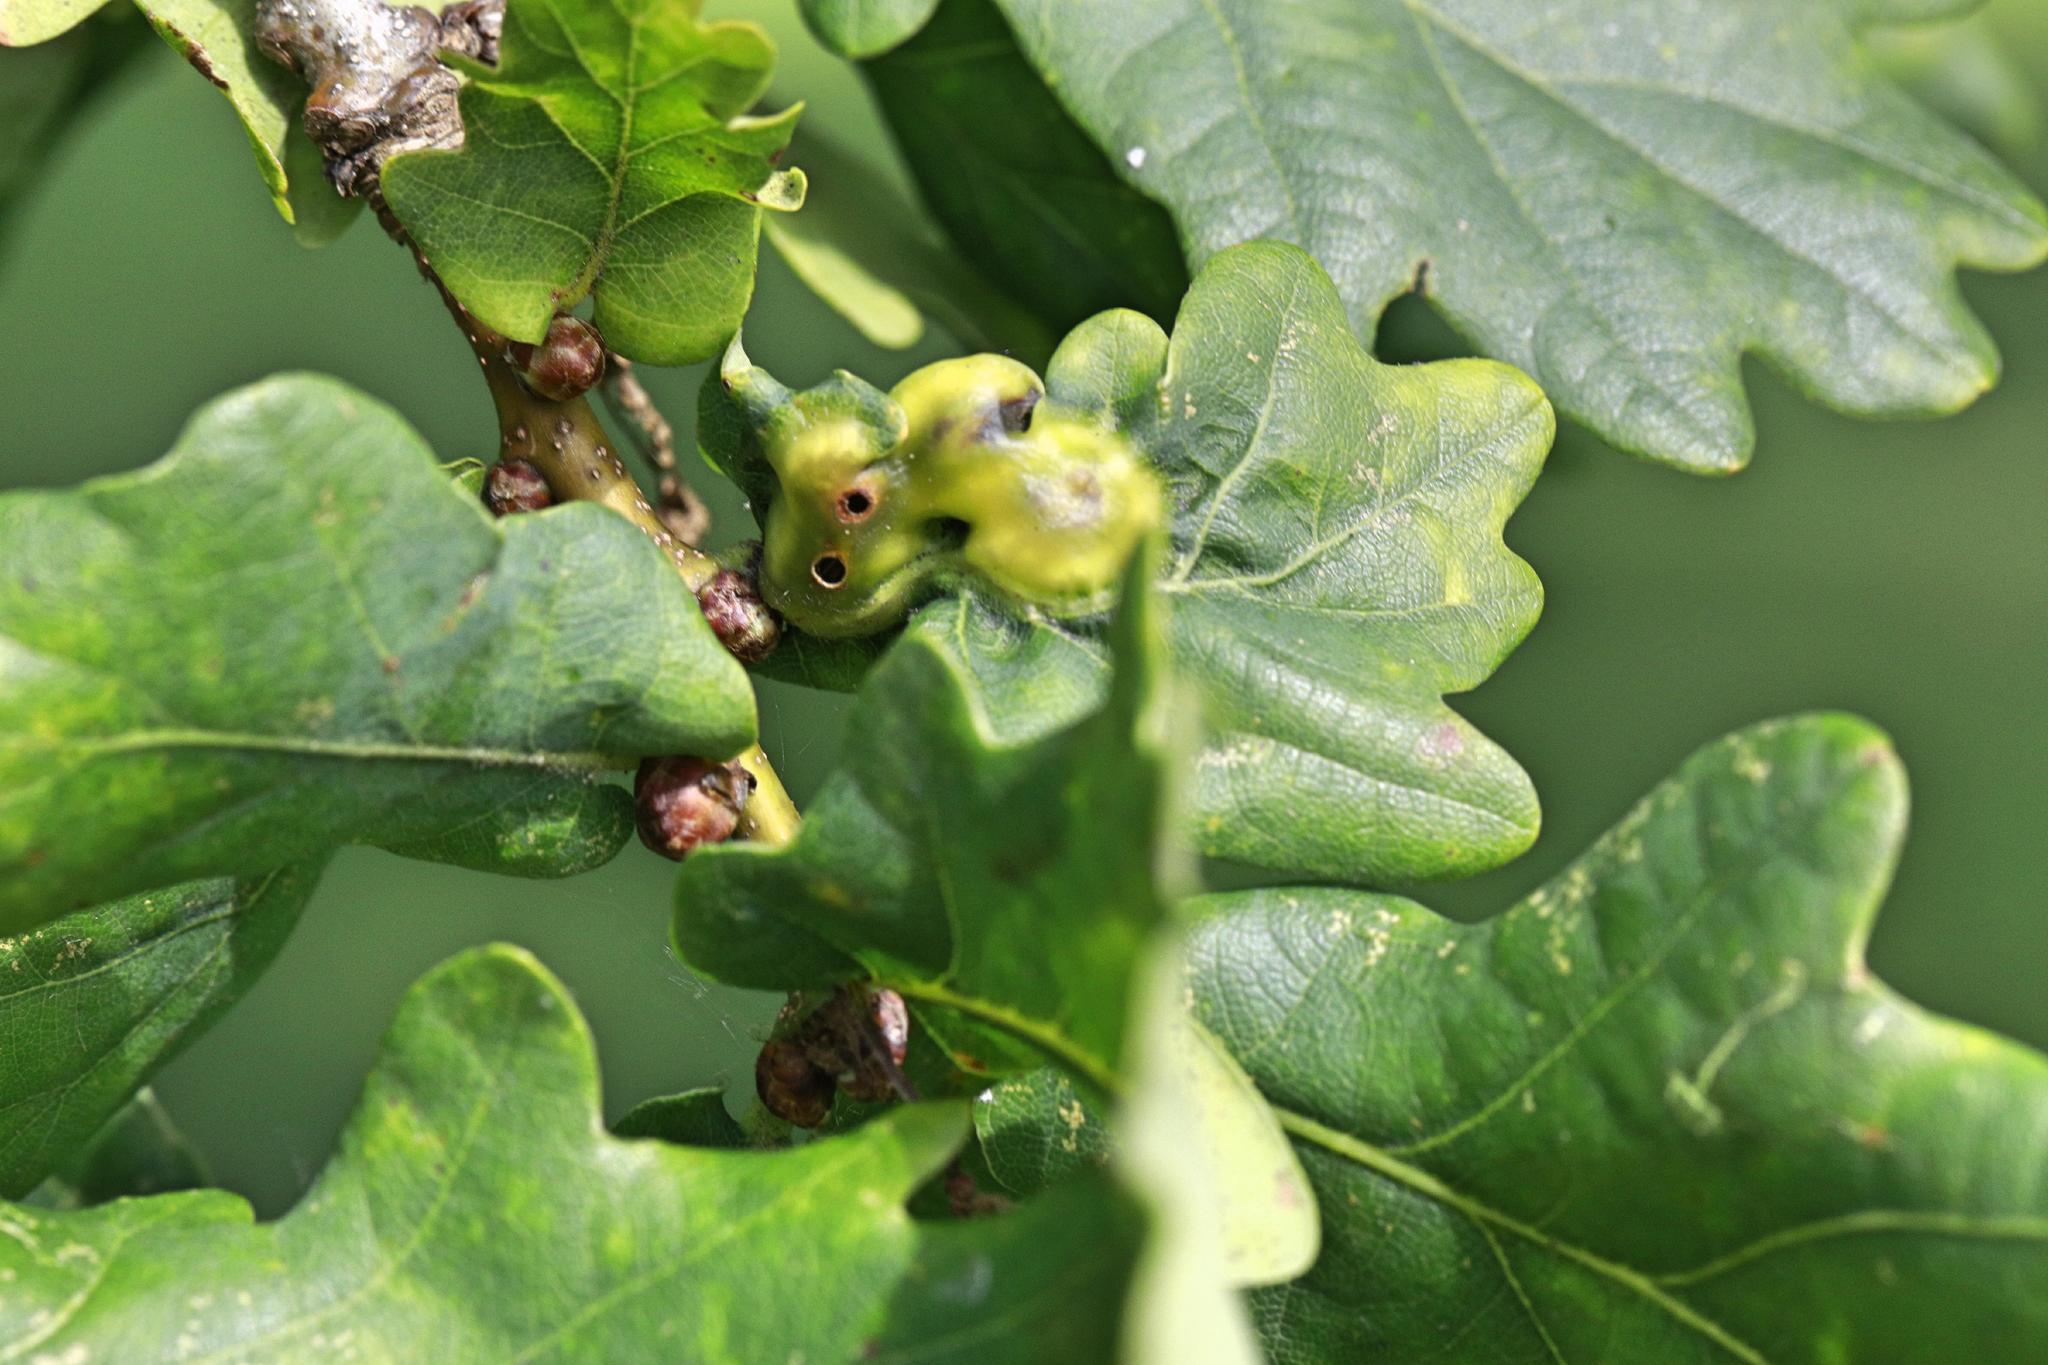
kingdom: Animalia
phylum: Arthropoda
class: Insecta
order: Hymenoptera
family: Cynipidae
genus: Andricus
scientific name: Andricus curvator
